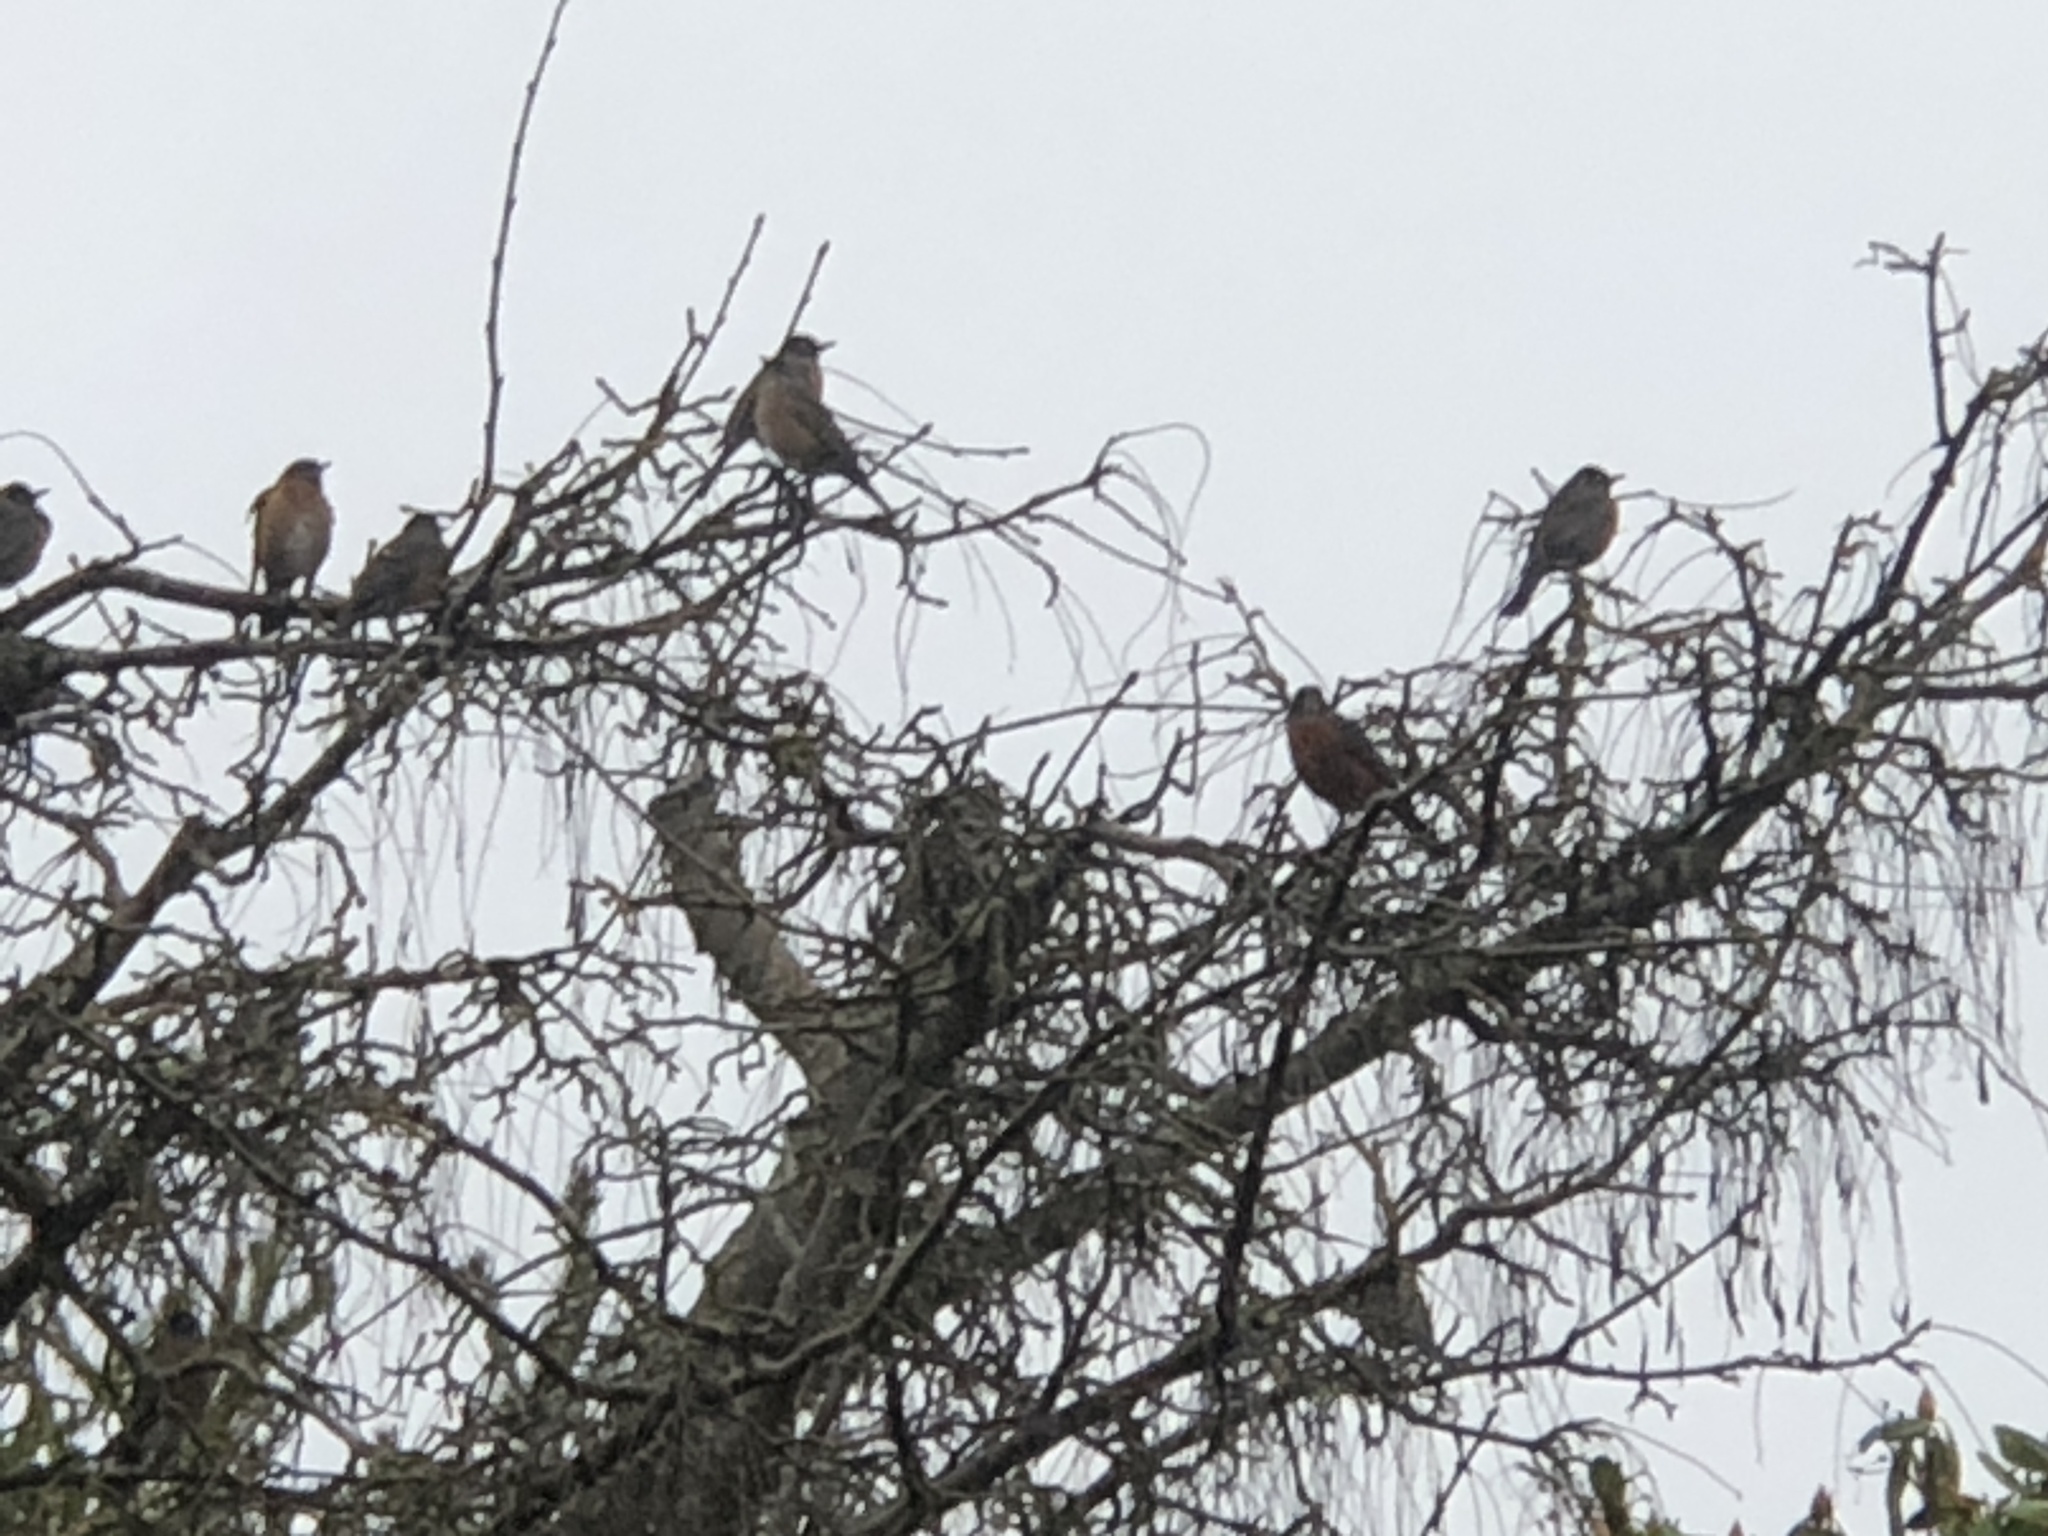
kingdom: Animalia
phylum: Chordata
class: Aves
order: Passeriformes
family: Turdidae
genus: Turdus
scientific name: Turdus migratorius
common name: American robin
